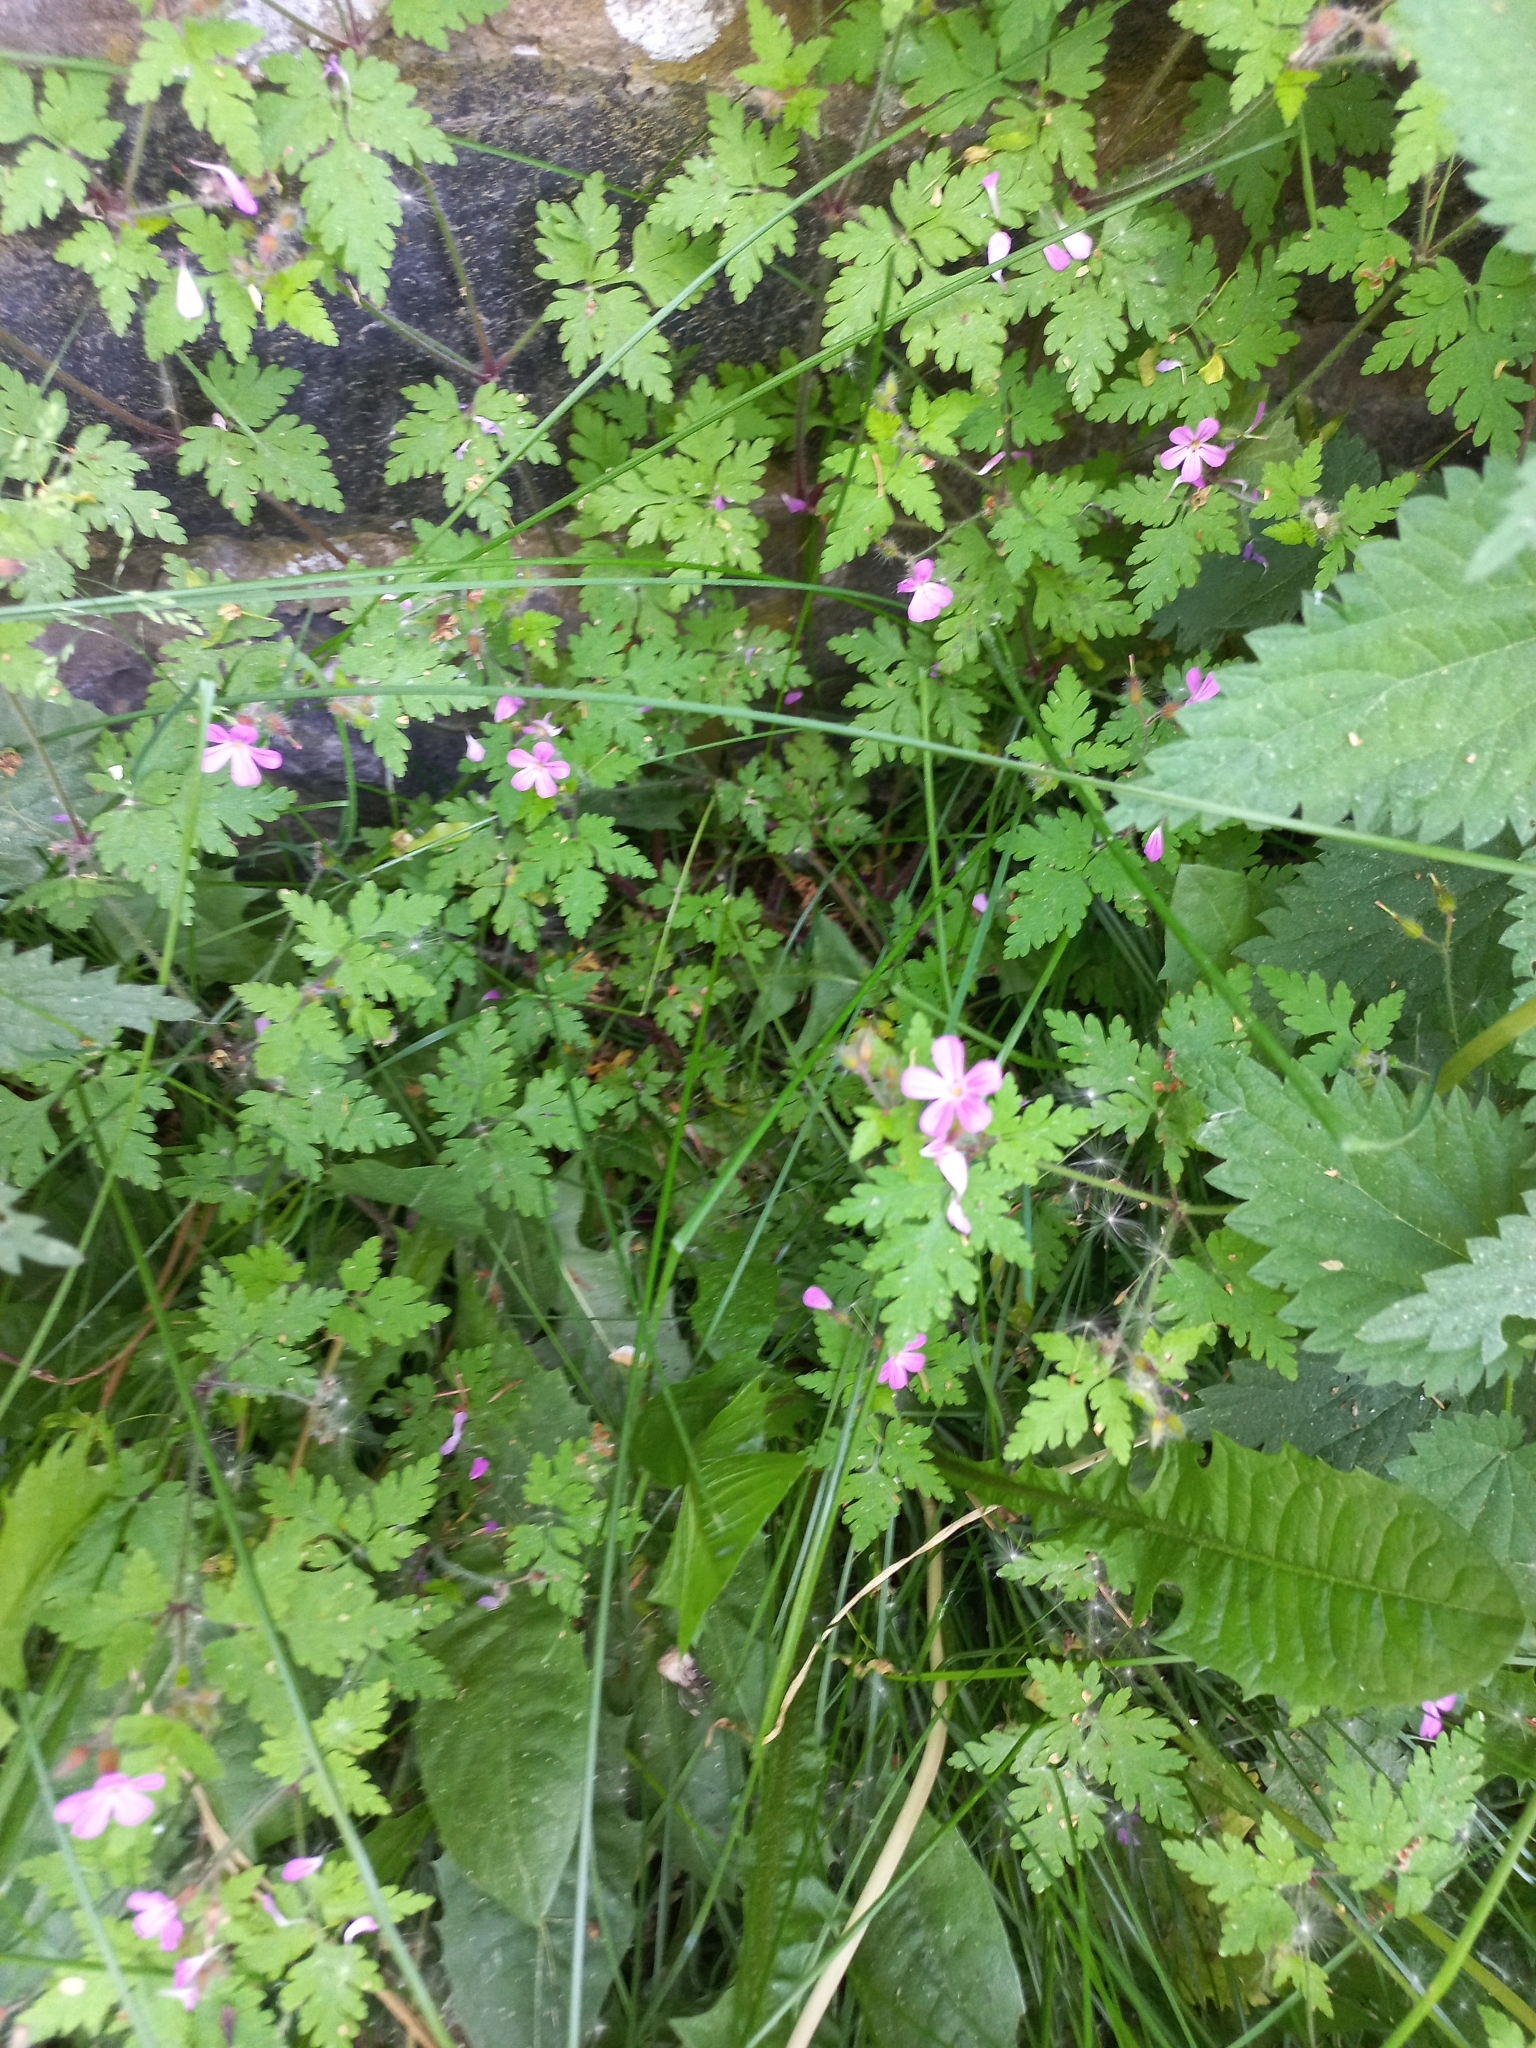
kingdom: Plantae
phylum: Tracheophyta
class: Magnoliopsida
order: Geraniales
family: Geraniaceae
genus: Geranium
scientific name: Geranium robertianum
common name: Herb-robert
